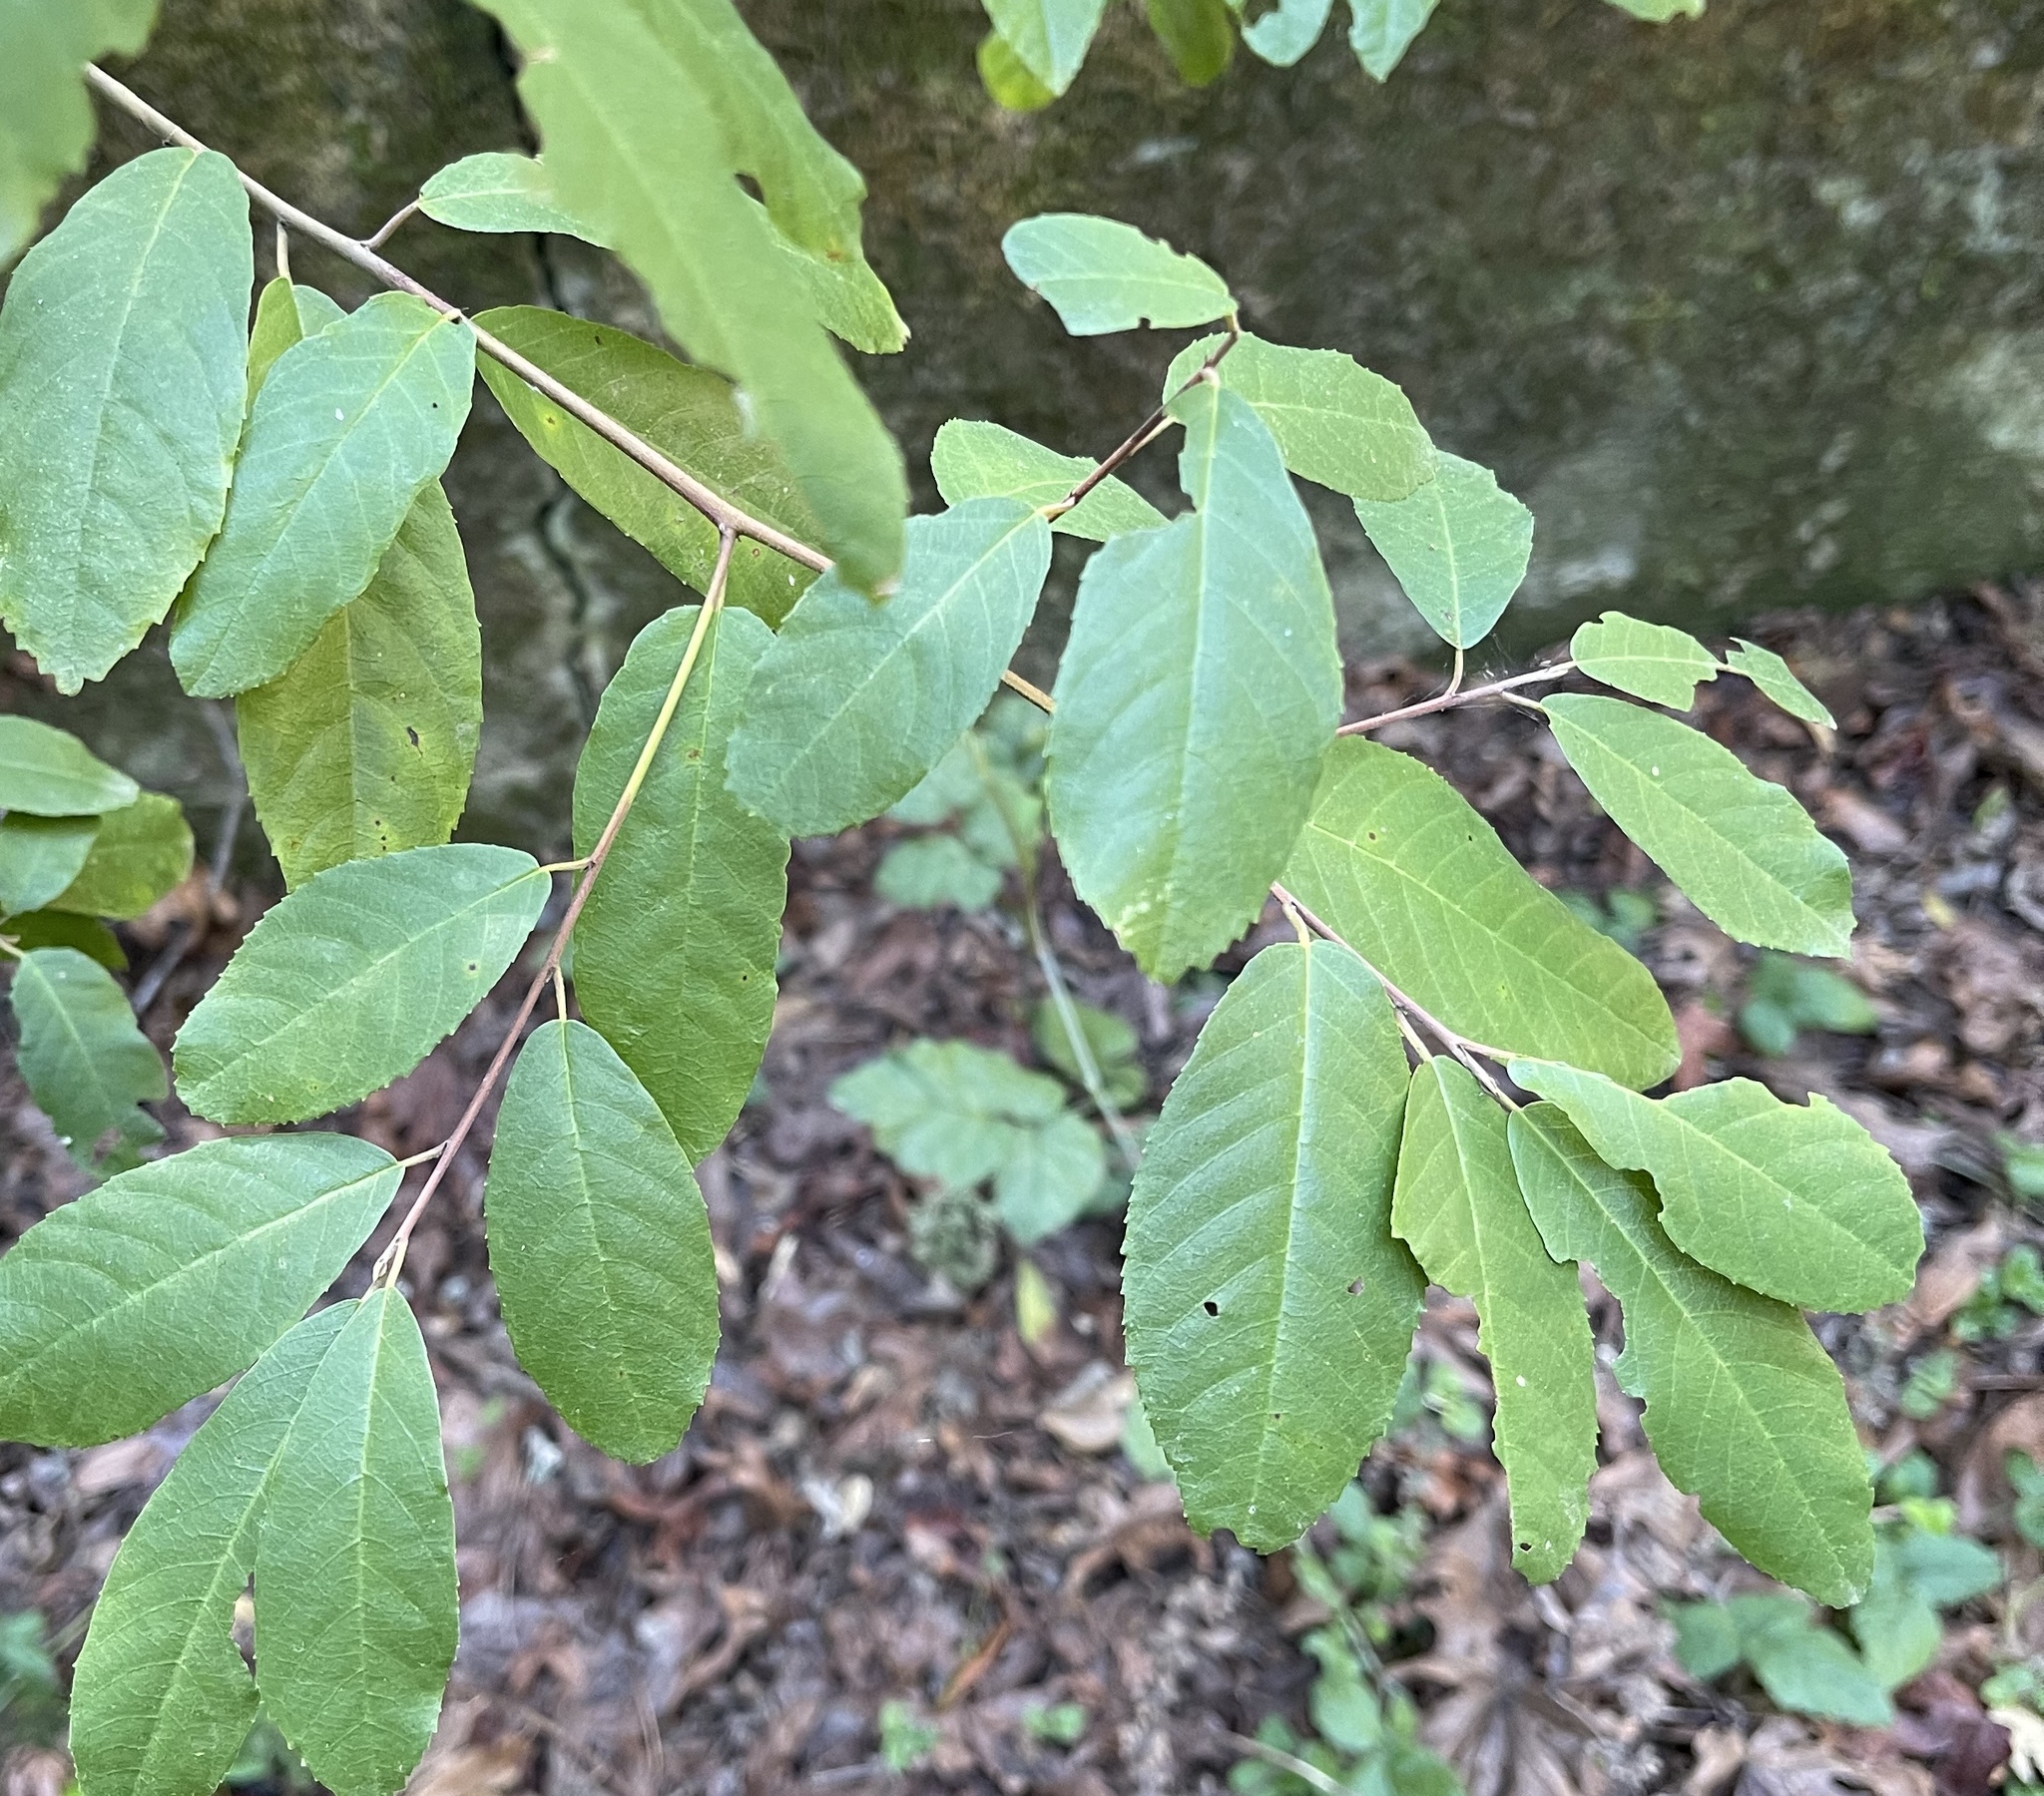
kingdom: Plantae
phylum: Tracheophyta
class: Magnoliopsida
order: Rosales
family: Rhamnaceae
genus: Frangula
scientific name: Frangula californica
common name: California buckthorn
